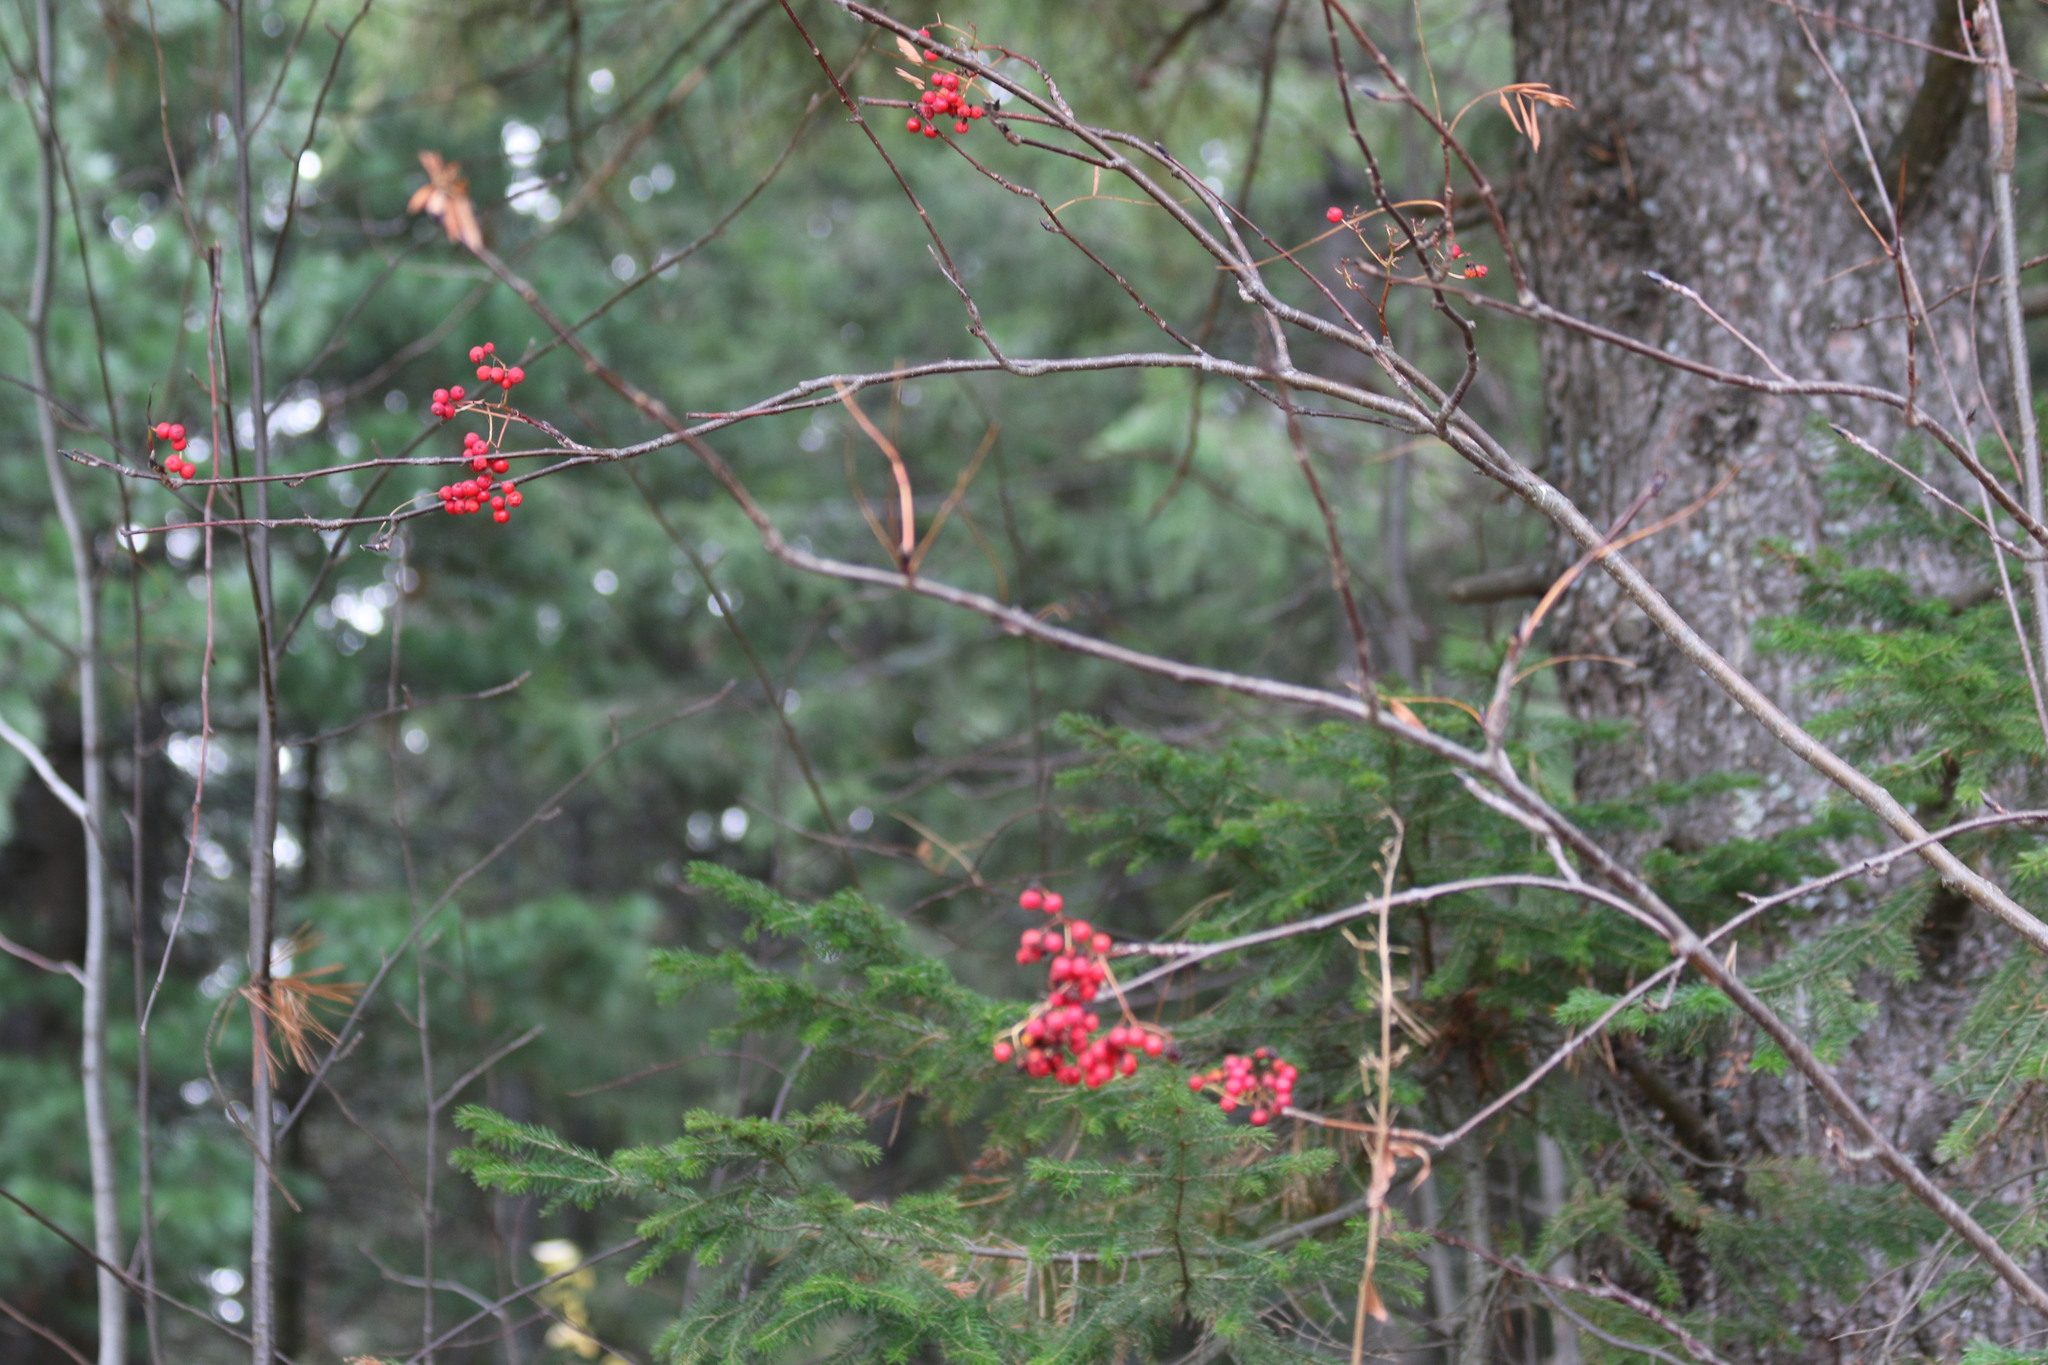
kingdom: Plantae
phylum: Tracheophyta
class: Magnoliopsida
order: Rosales
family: Rosaceae
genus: Sorbus
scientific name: Sorbus aucuparia
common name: Rowan
